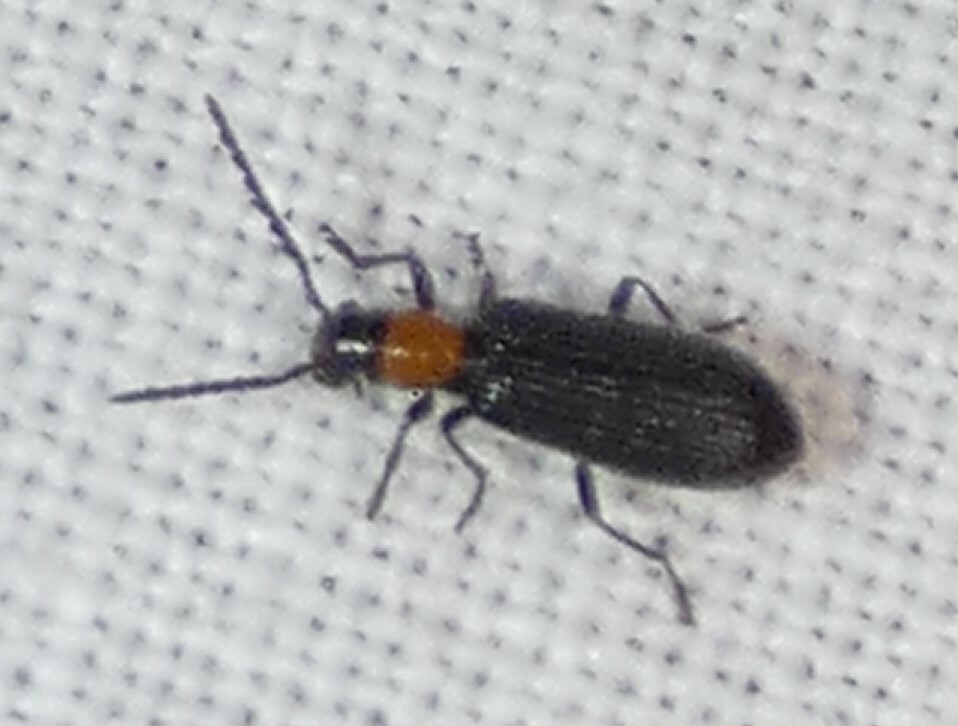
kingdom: Animalia
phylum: Arthropoda
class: Insecta
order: Coleoptera
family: Cleridae
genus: Cymatoderella
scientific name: Cymatoderella collaris
